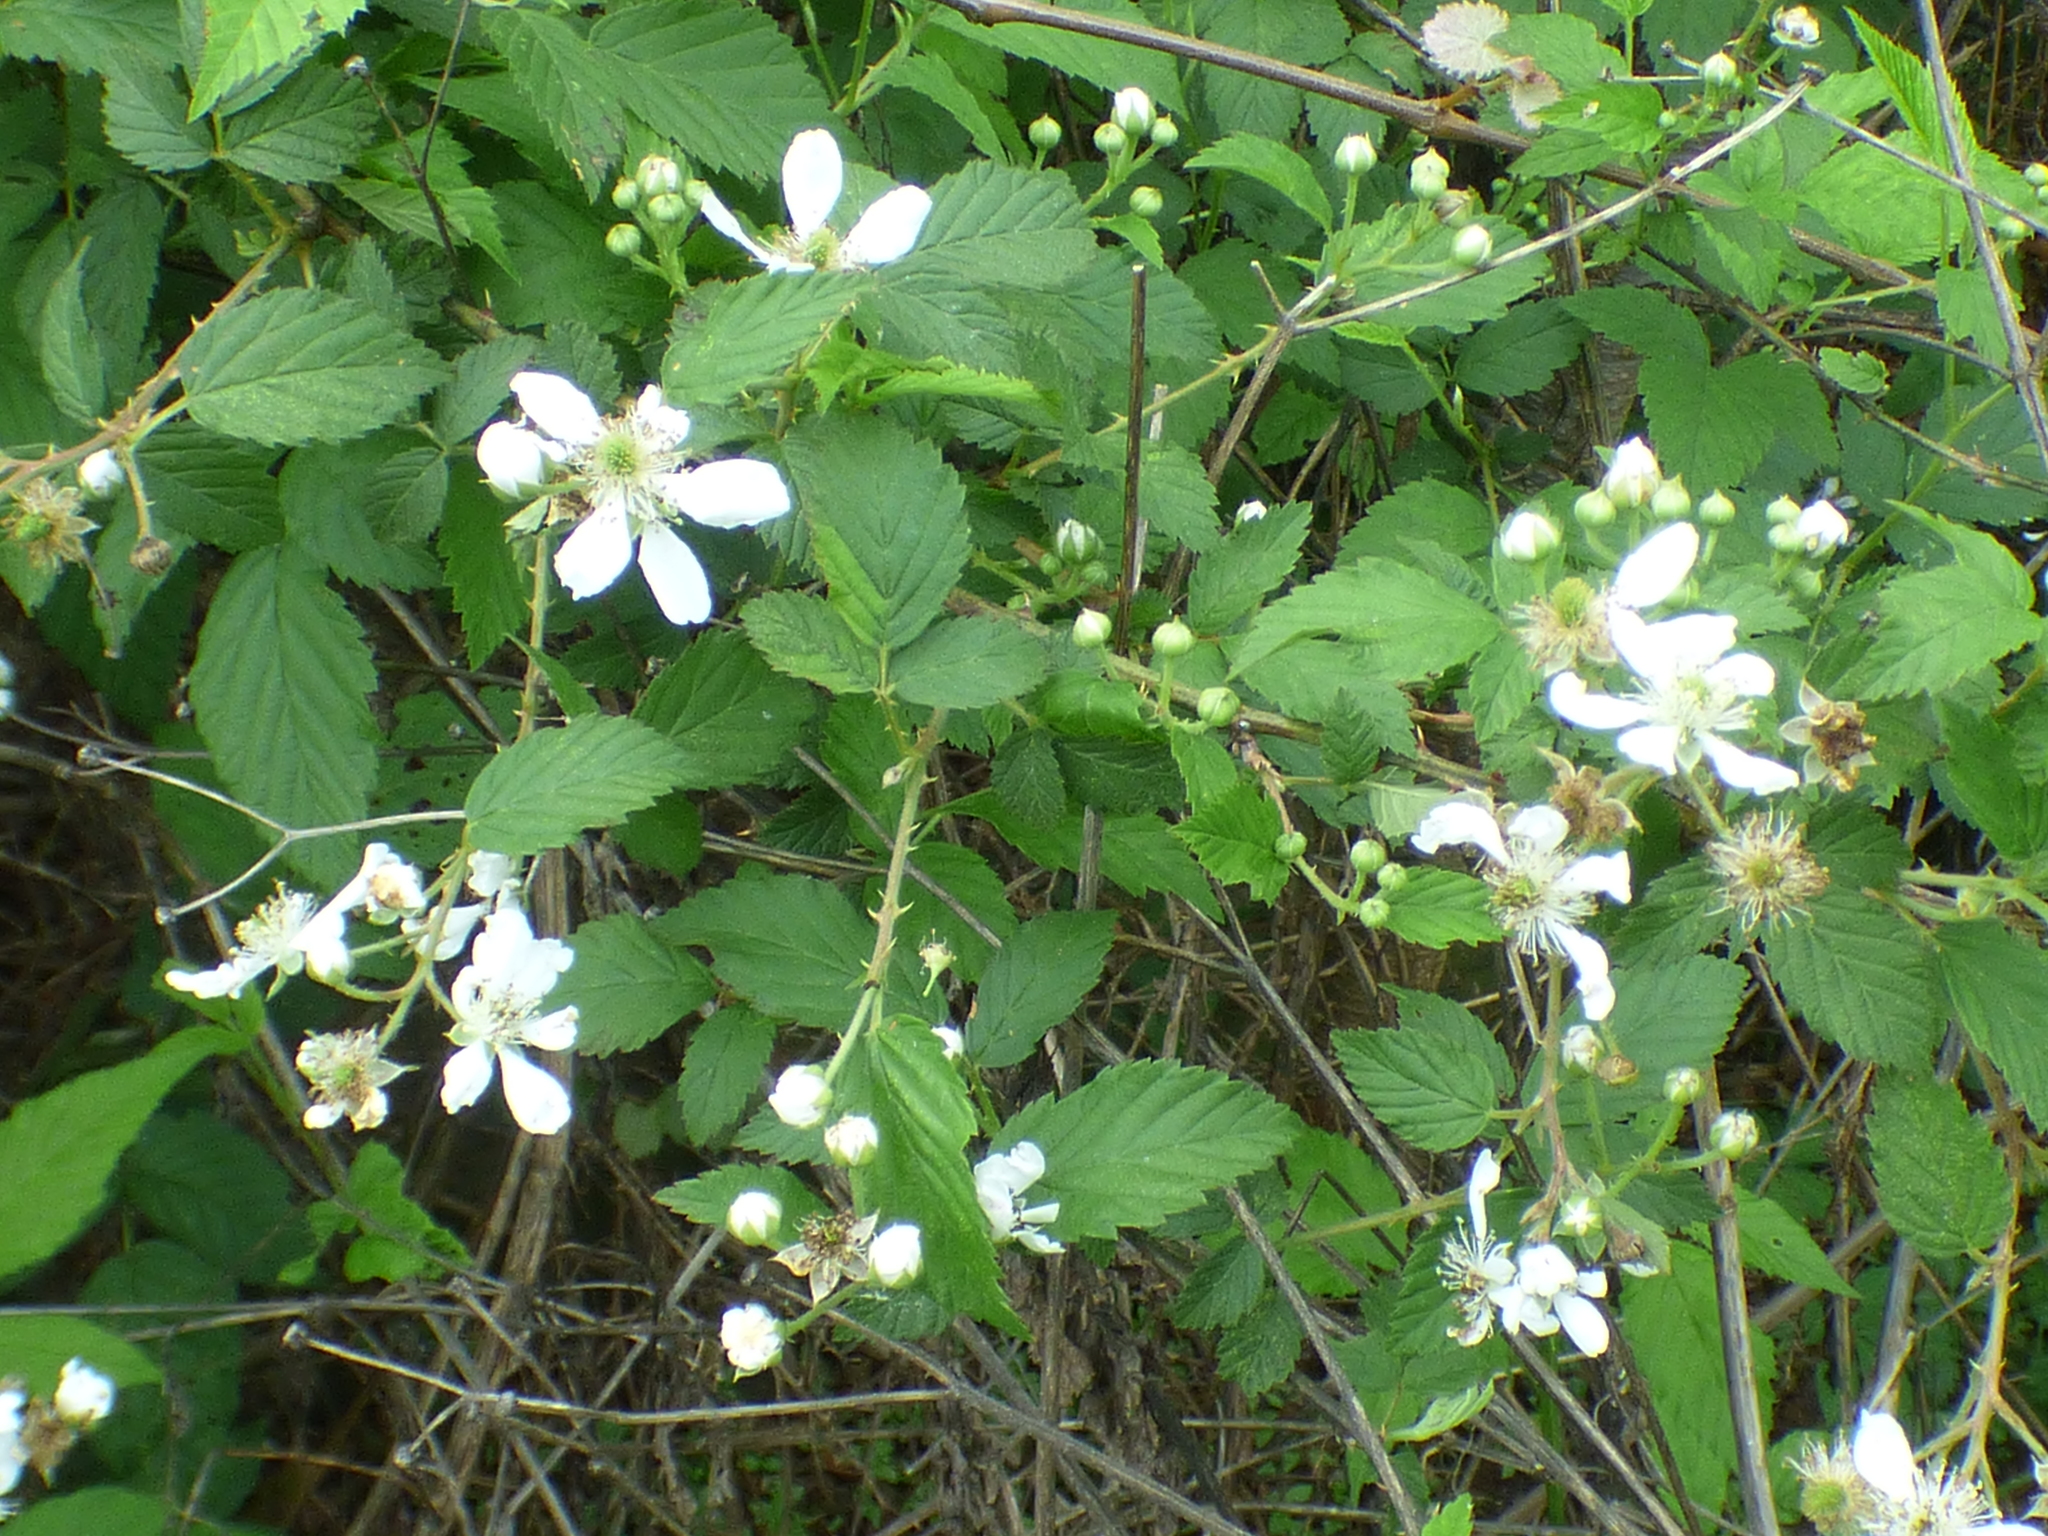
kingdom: Plantae
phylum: Tracheophyta
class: Magnoliopsida
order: Rosales
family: Rosaceae
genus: Rubus
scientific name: Rubus pensilvanicus
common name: Pennsylvania blackberry
